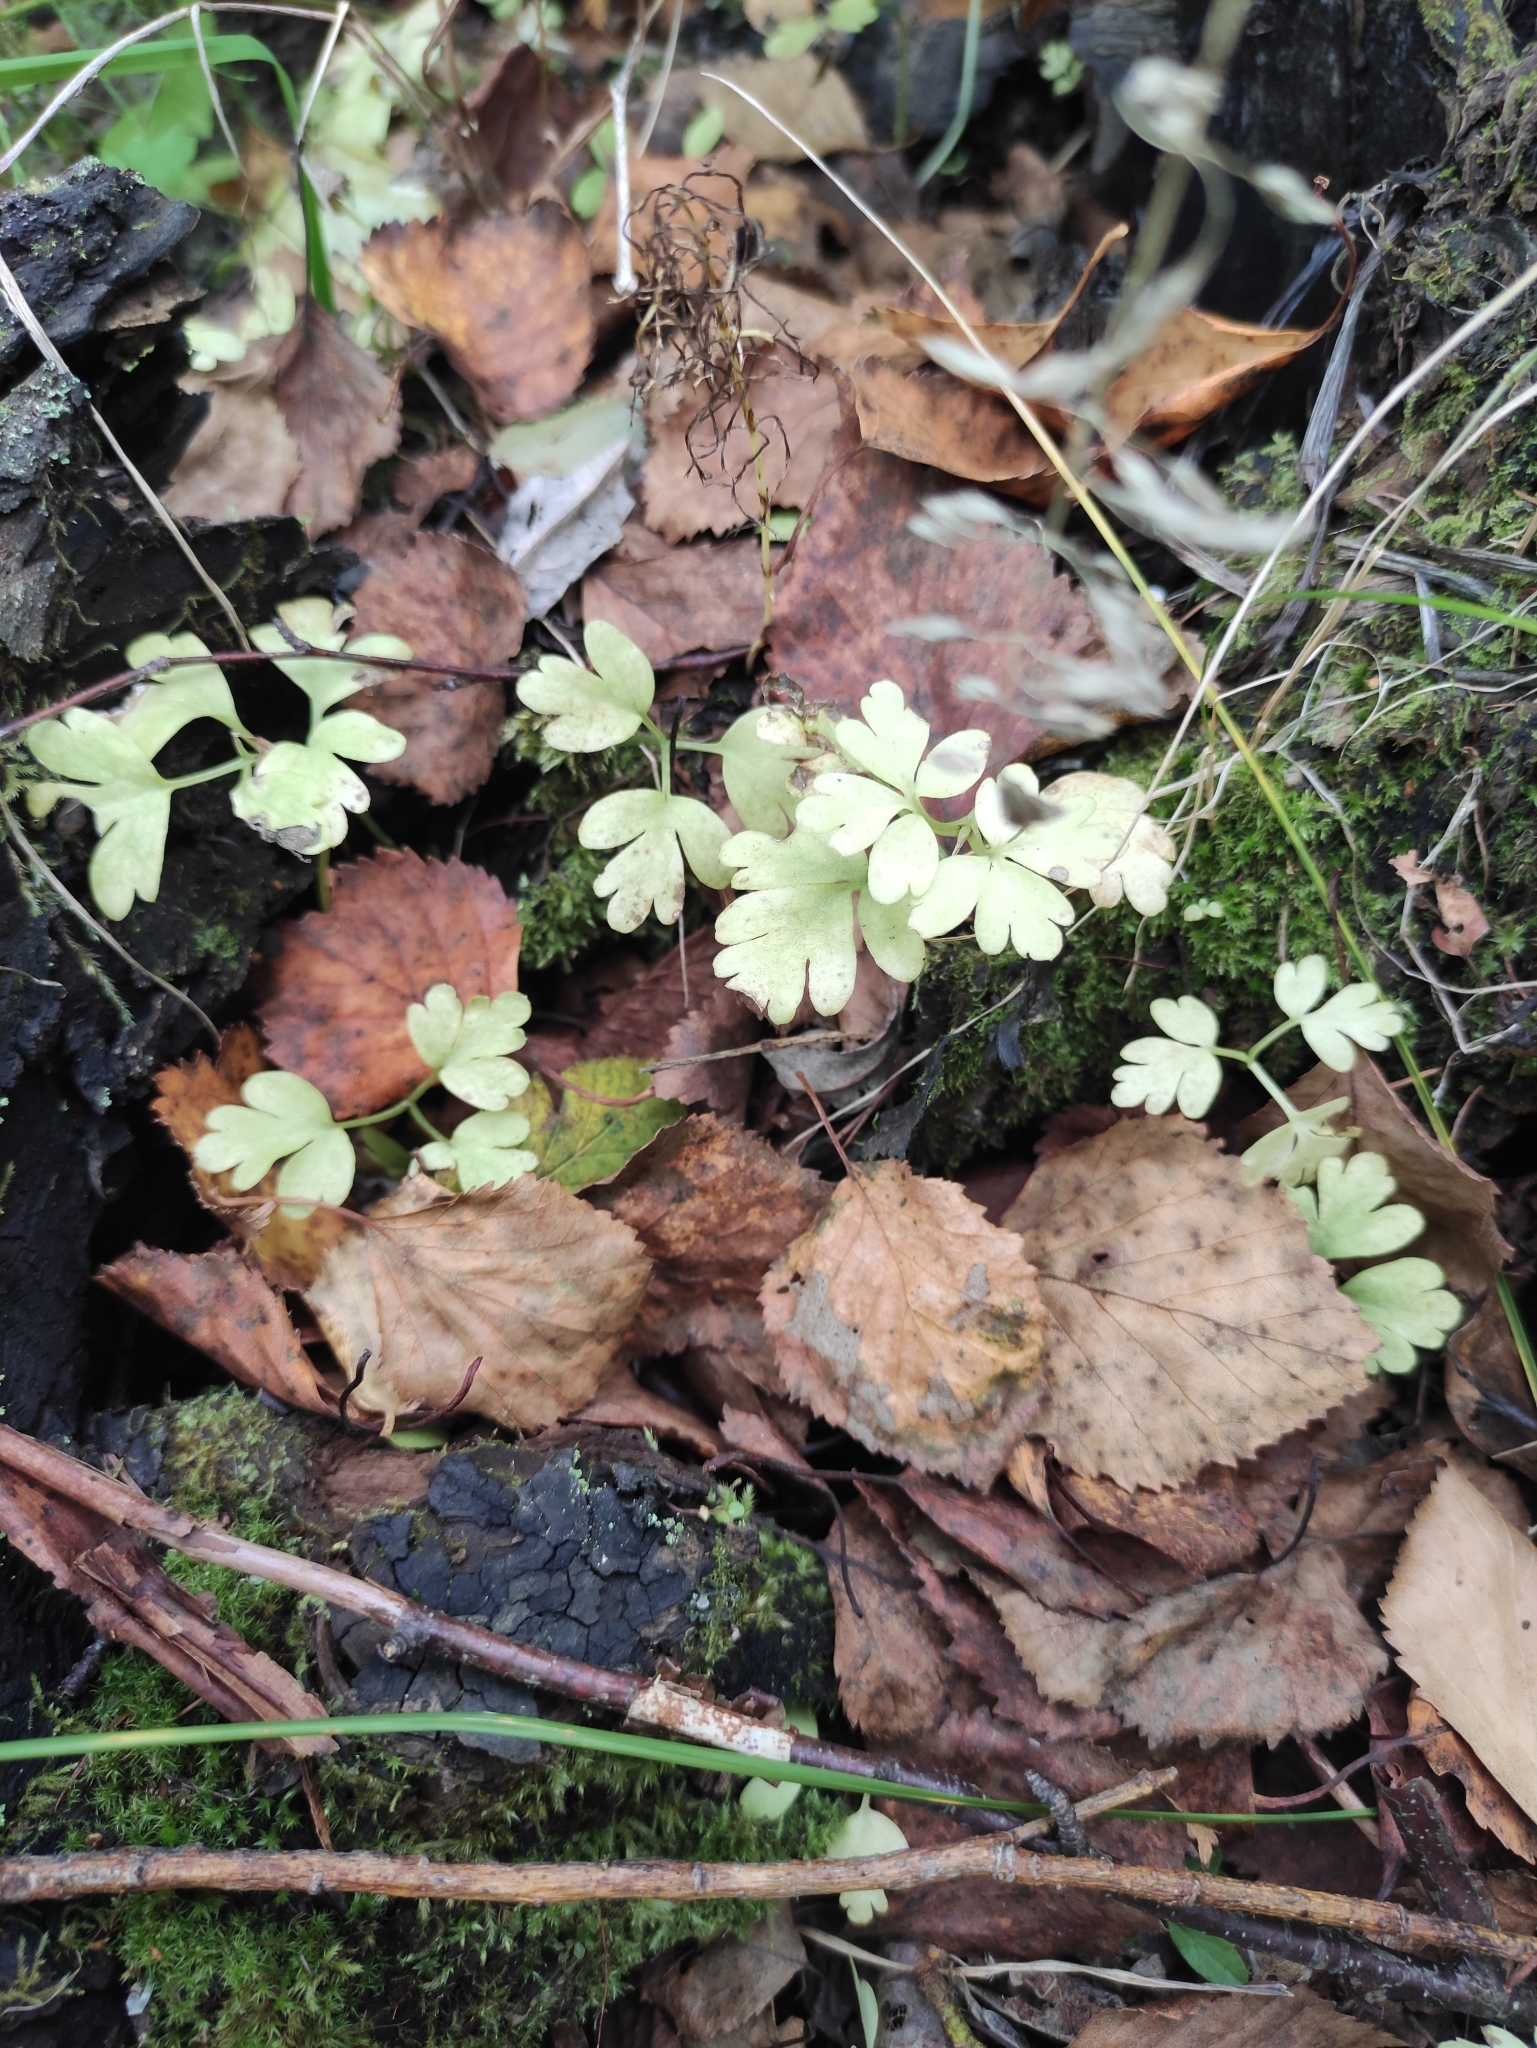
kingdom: Plantae
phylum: Tracheophyta
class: Magnoliopsida
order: Dipsacales
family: Viburnaceae
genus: Adoxa
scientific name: Adoxa moschatellina
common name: Moschatel
